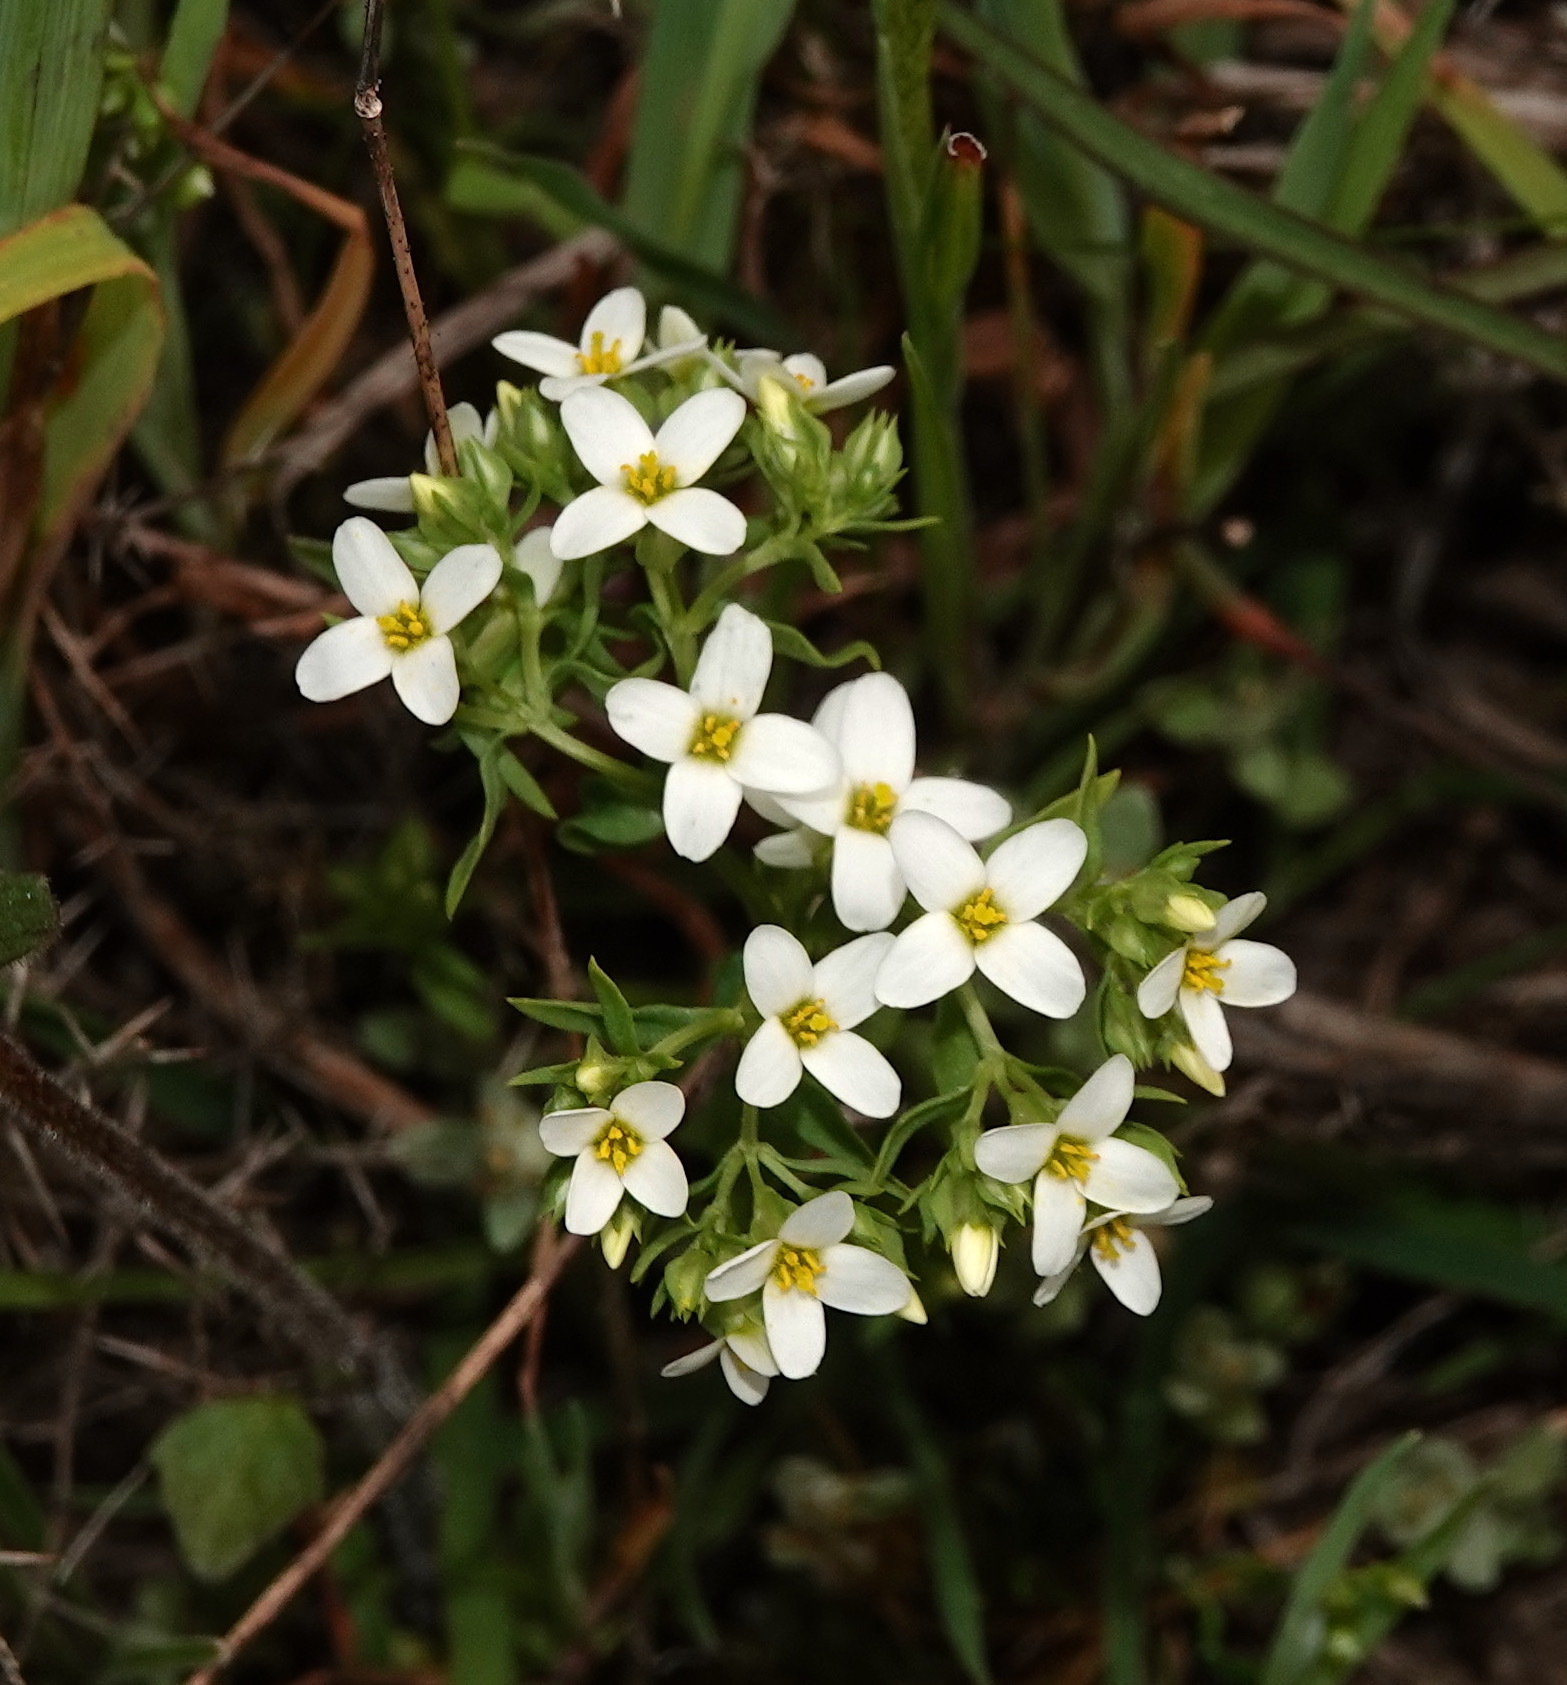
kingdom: Plantae
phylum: Tracheophyta
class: Magnoliopsida
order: Gentianales
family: Gentianaceae
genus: Sebaea
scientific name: Sebaea albens
